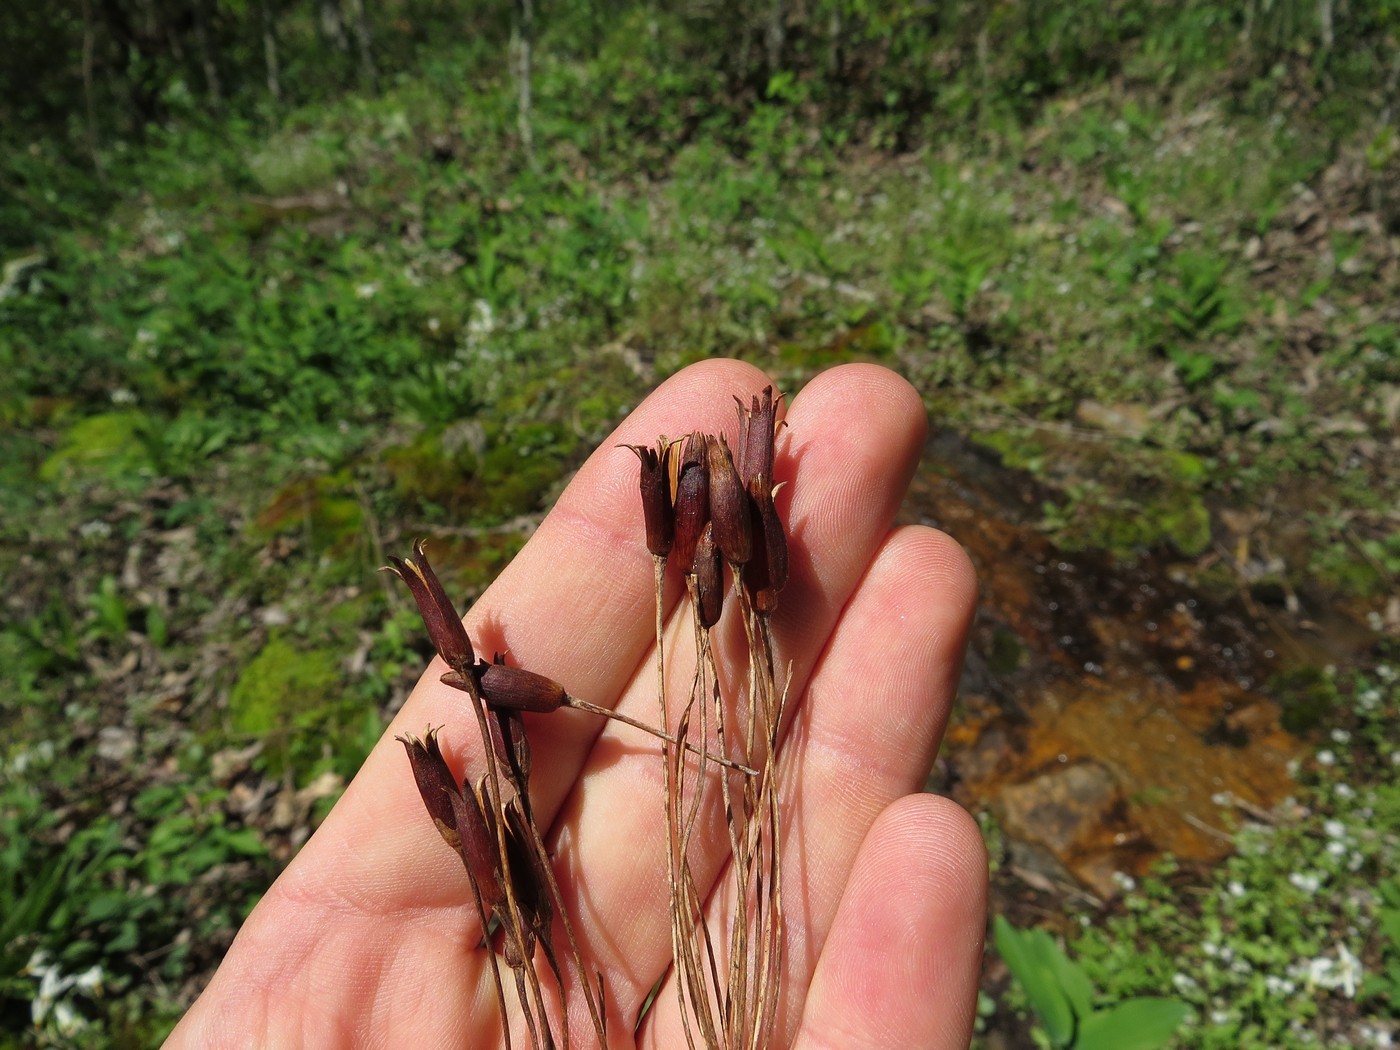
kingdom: Plantae
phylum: Tracheophyta
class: Magnoliopsida
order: Ericales
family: Primulaceae
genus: Dodecatheon
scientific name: Dodecatheon meadia
